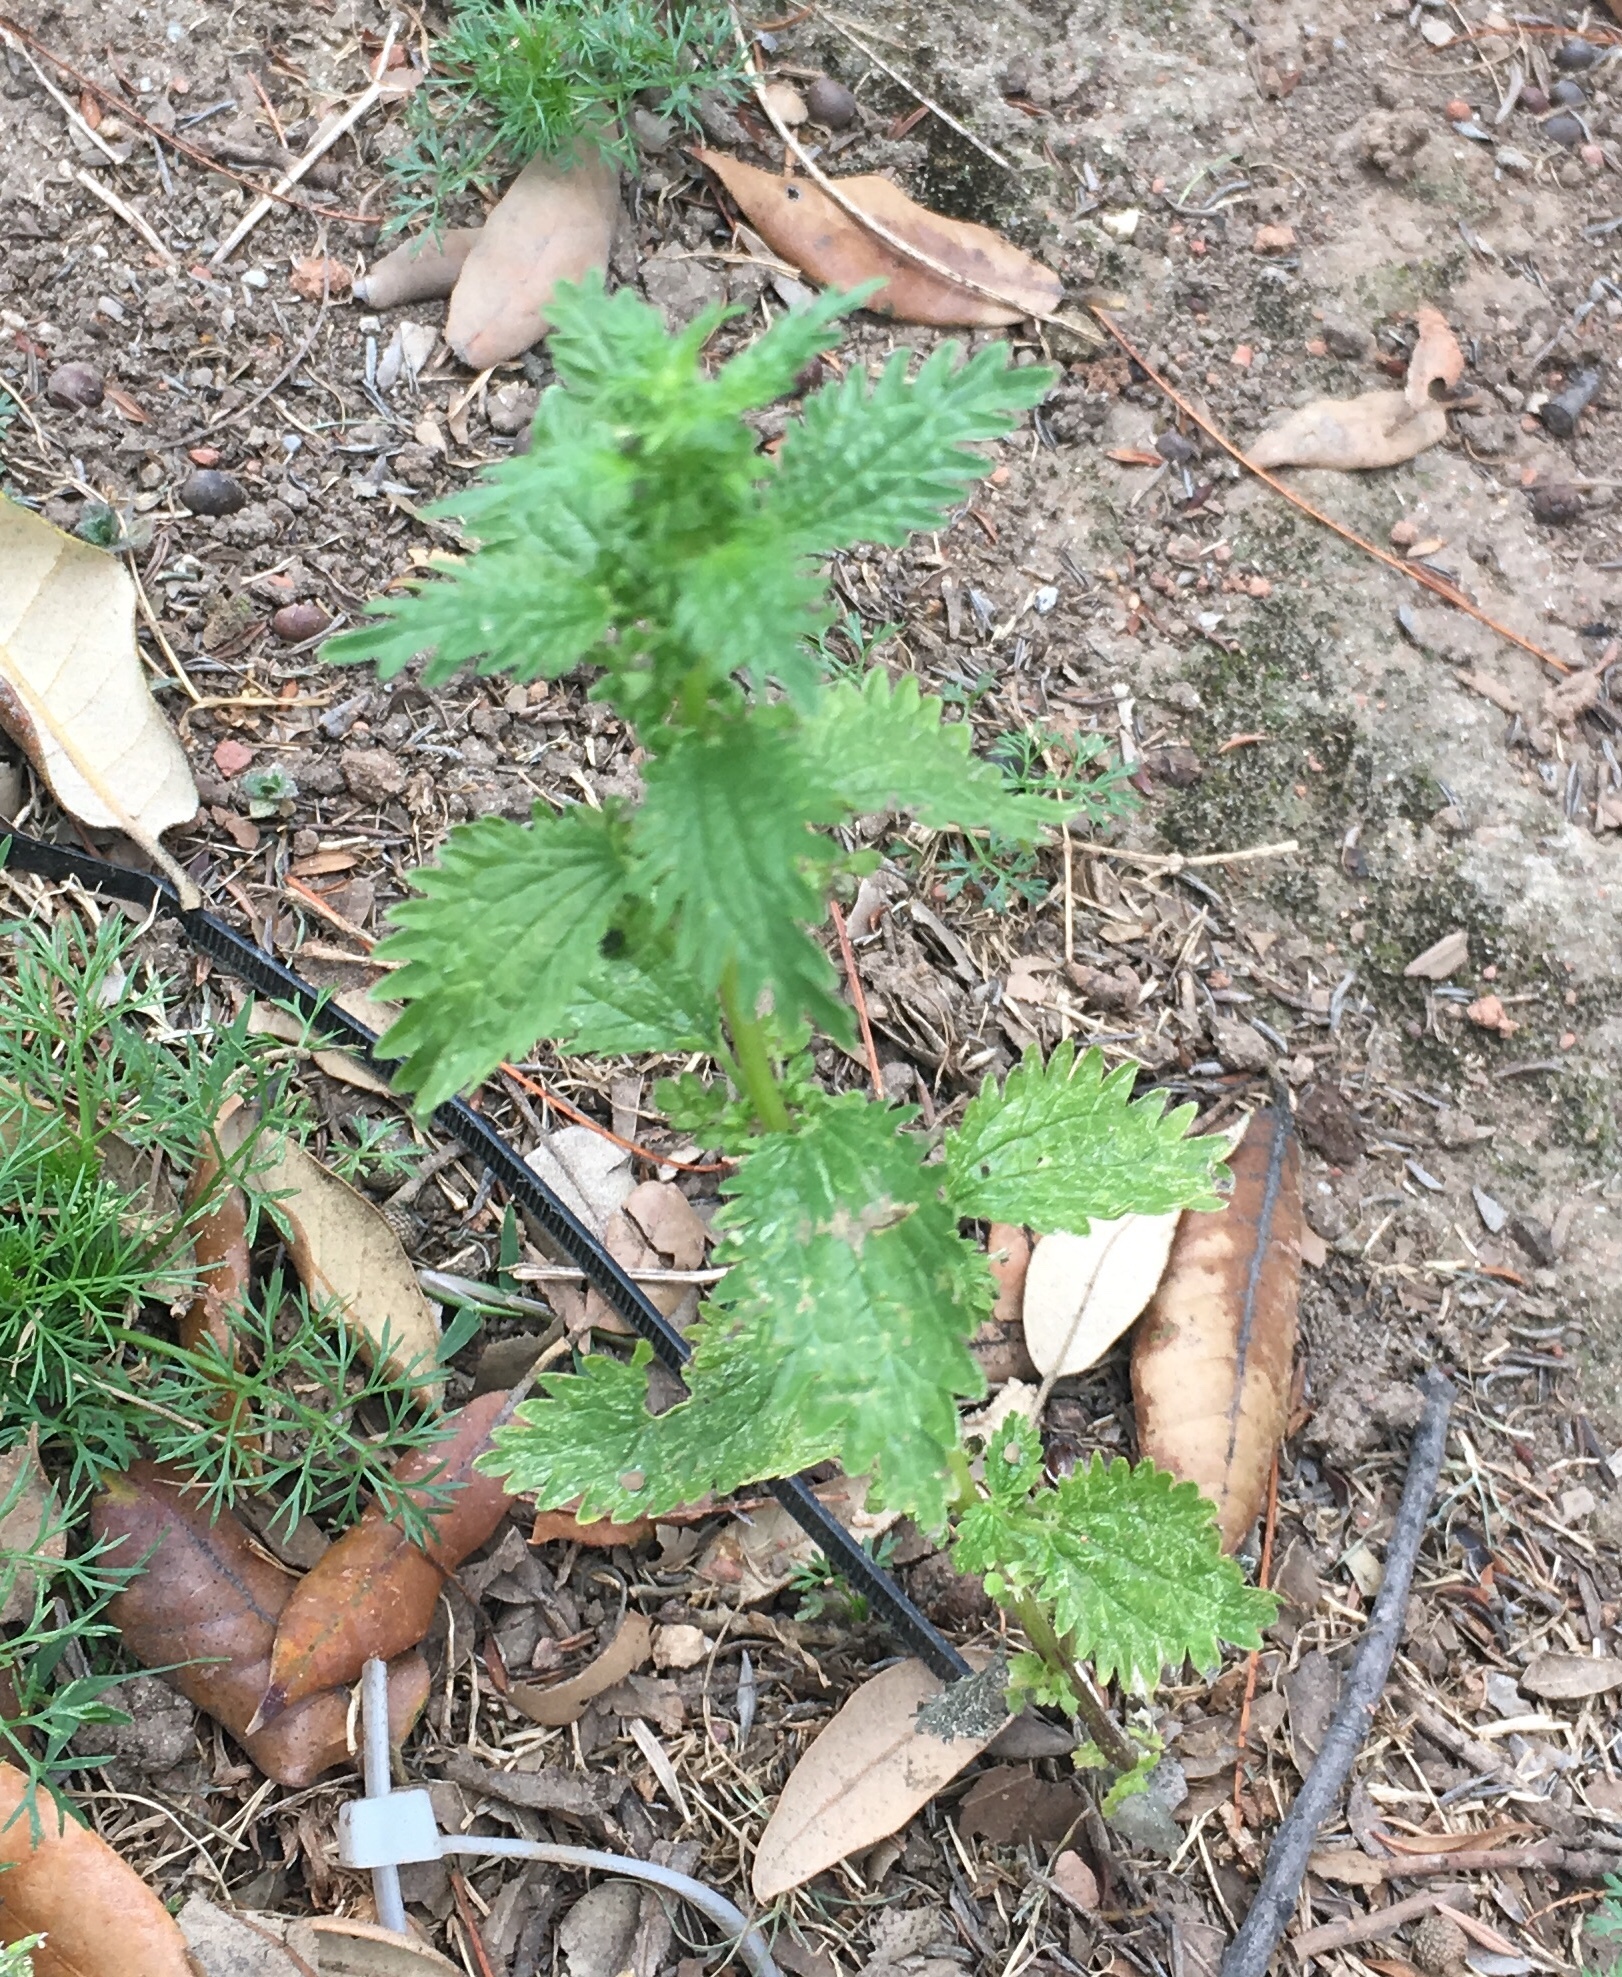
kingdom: Plantae
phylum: Tracheophyta
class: Magnoliopsida
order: Rosales
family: Urticaceae
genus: Urtica
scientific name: Urtica urens
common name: Dwarf nettle
